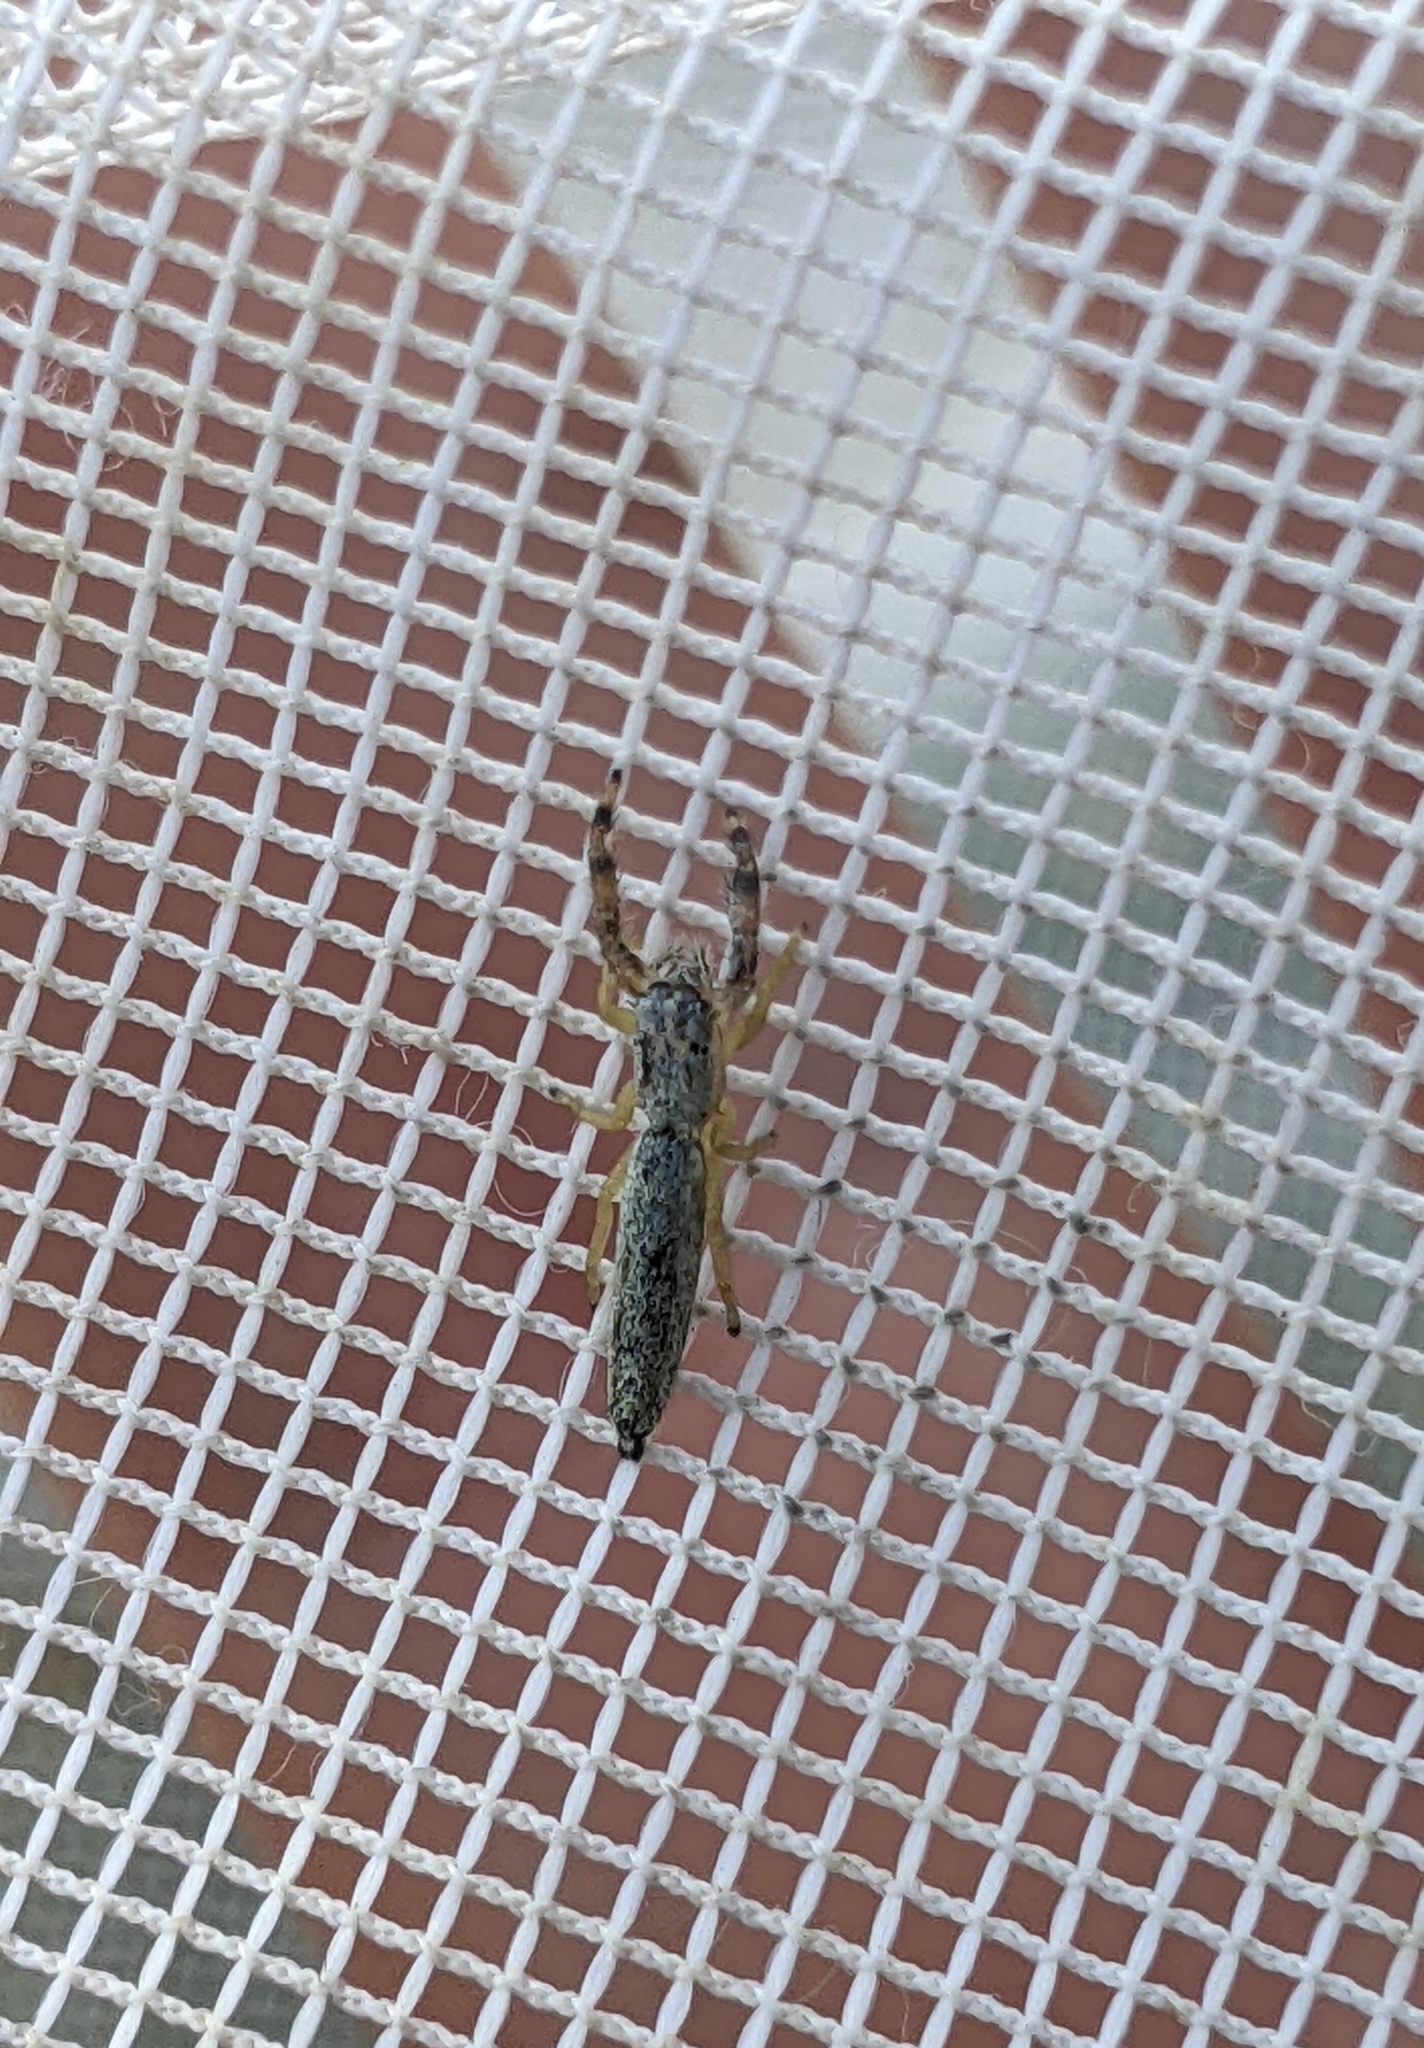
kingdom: Animalia
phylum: Arthropoda
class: Arachnida
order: Araneae
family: Salticidae
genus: Marpissa
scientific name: Marpissa pikei
